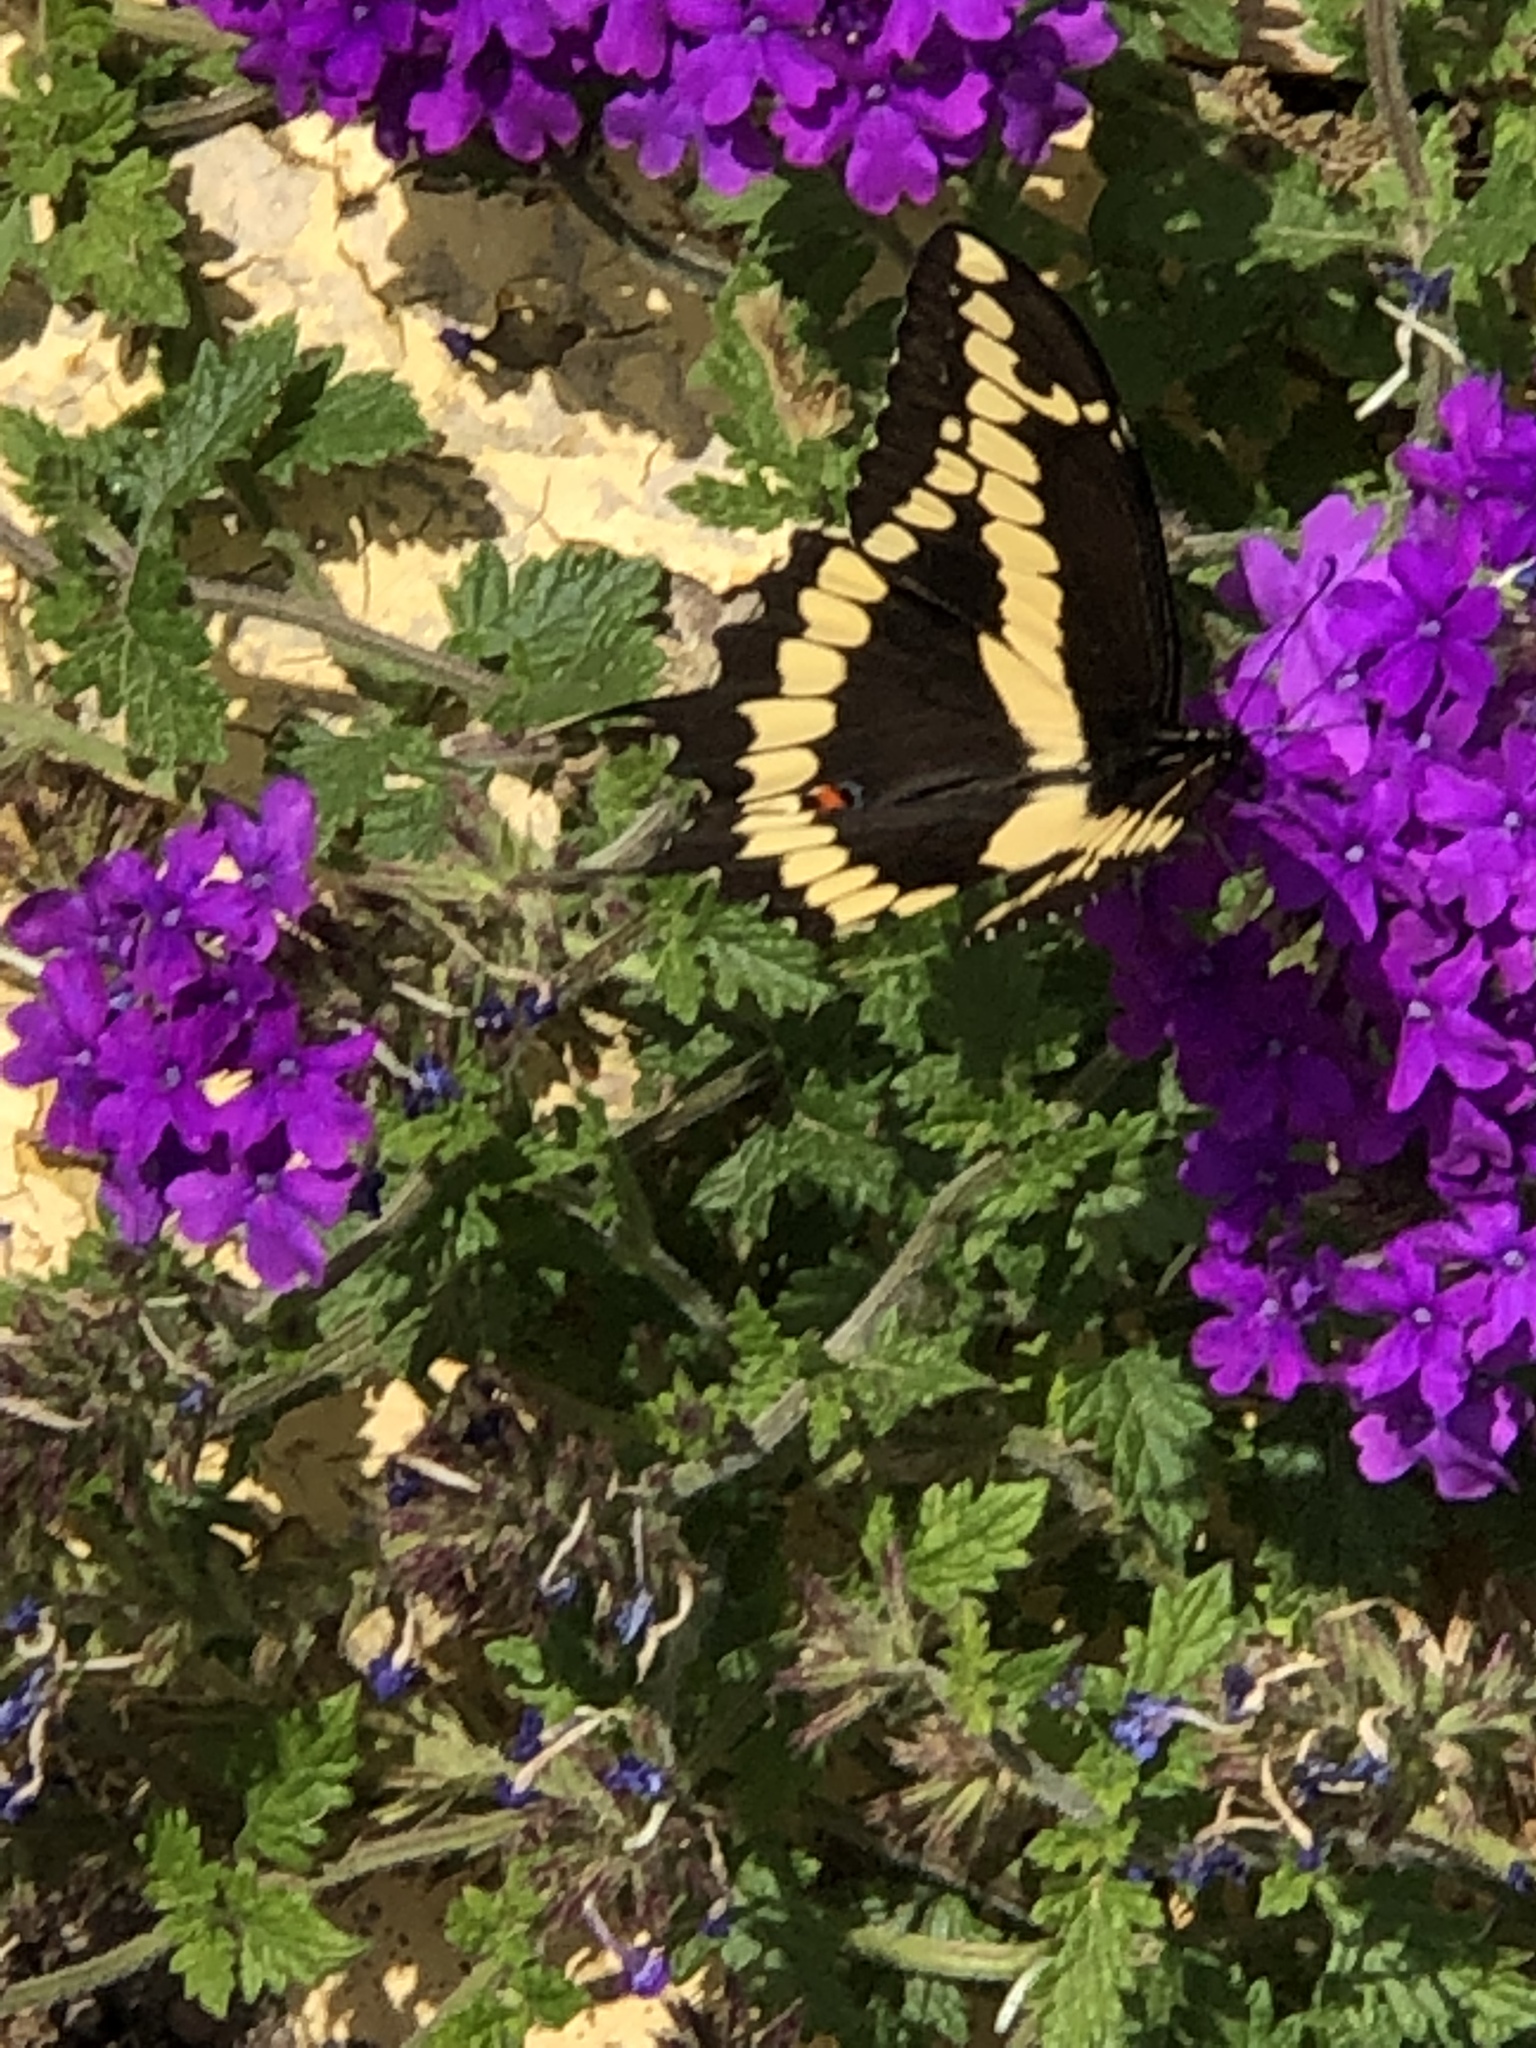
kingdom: Animalia
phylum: Arthropoda
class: Insecta
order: Lepidoptera
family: Papilionidae
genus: Papilio
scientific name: Papilio cresphontes
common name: Giant swallowtail
